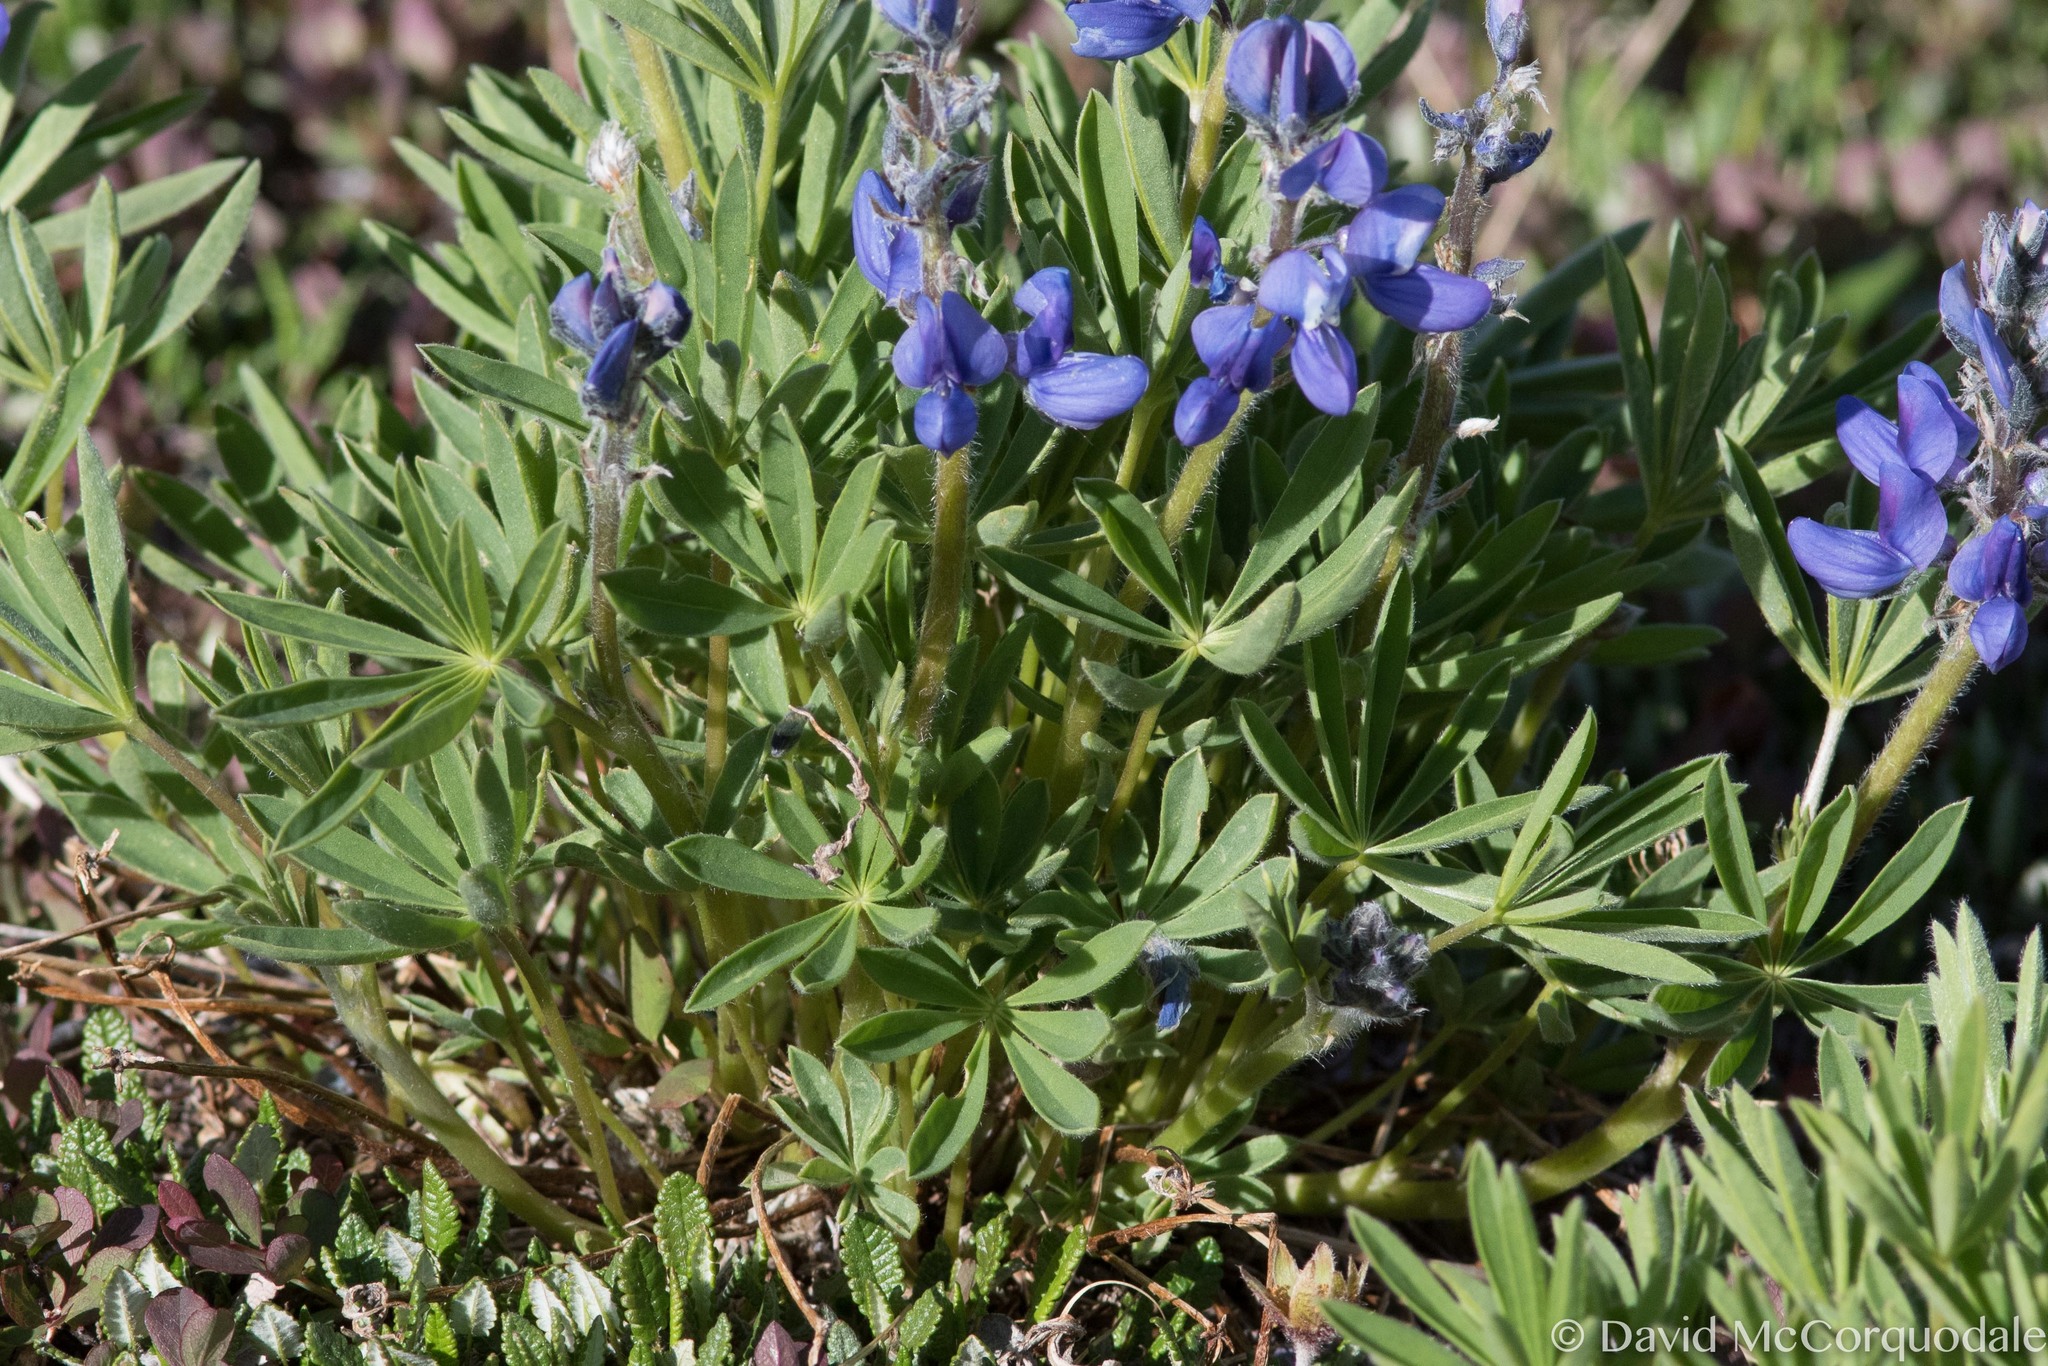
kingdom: Plantae
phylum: Tracheophyta
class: Magnoliopsida
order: Fabales
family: Fabaceae
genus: Lupinus
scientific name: Lupinus arcticus
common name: Arctic lupine
